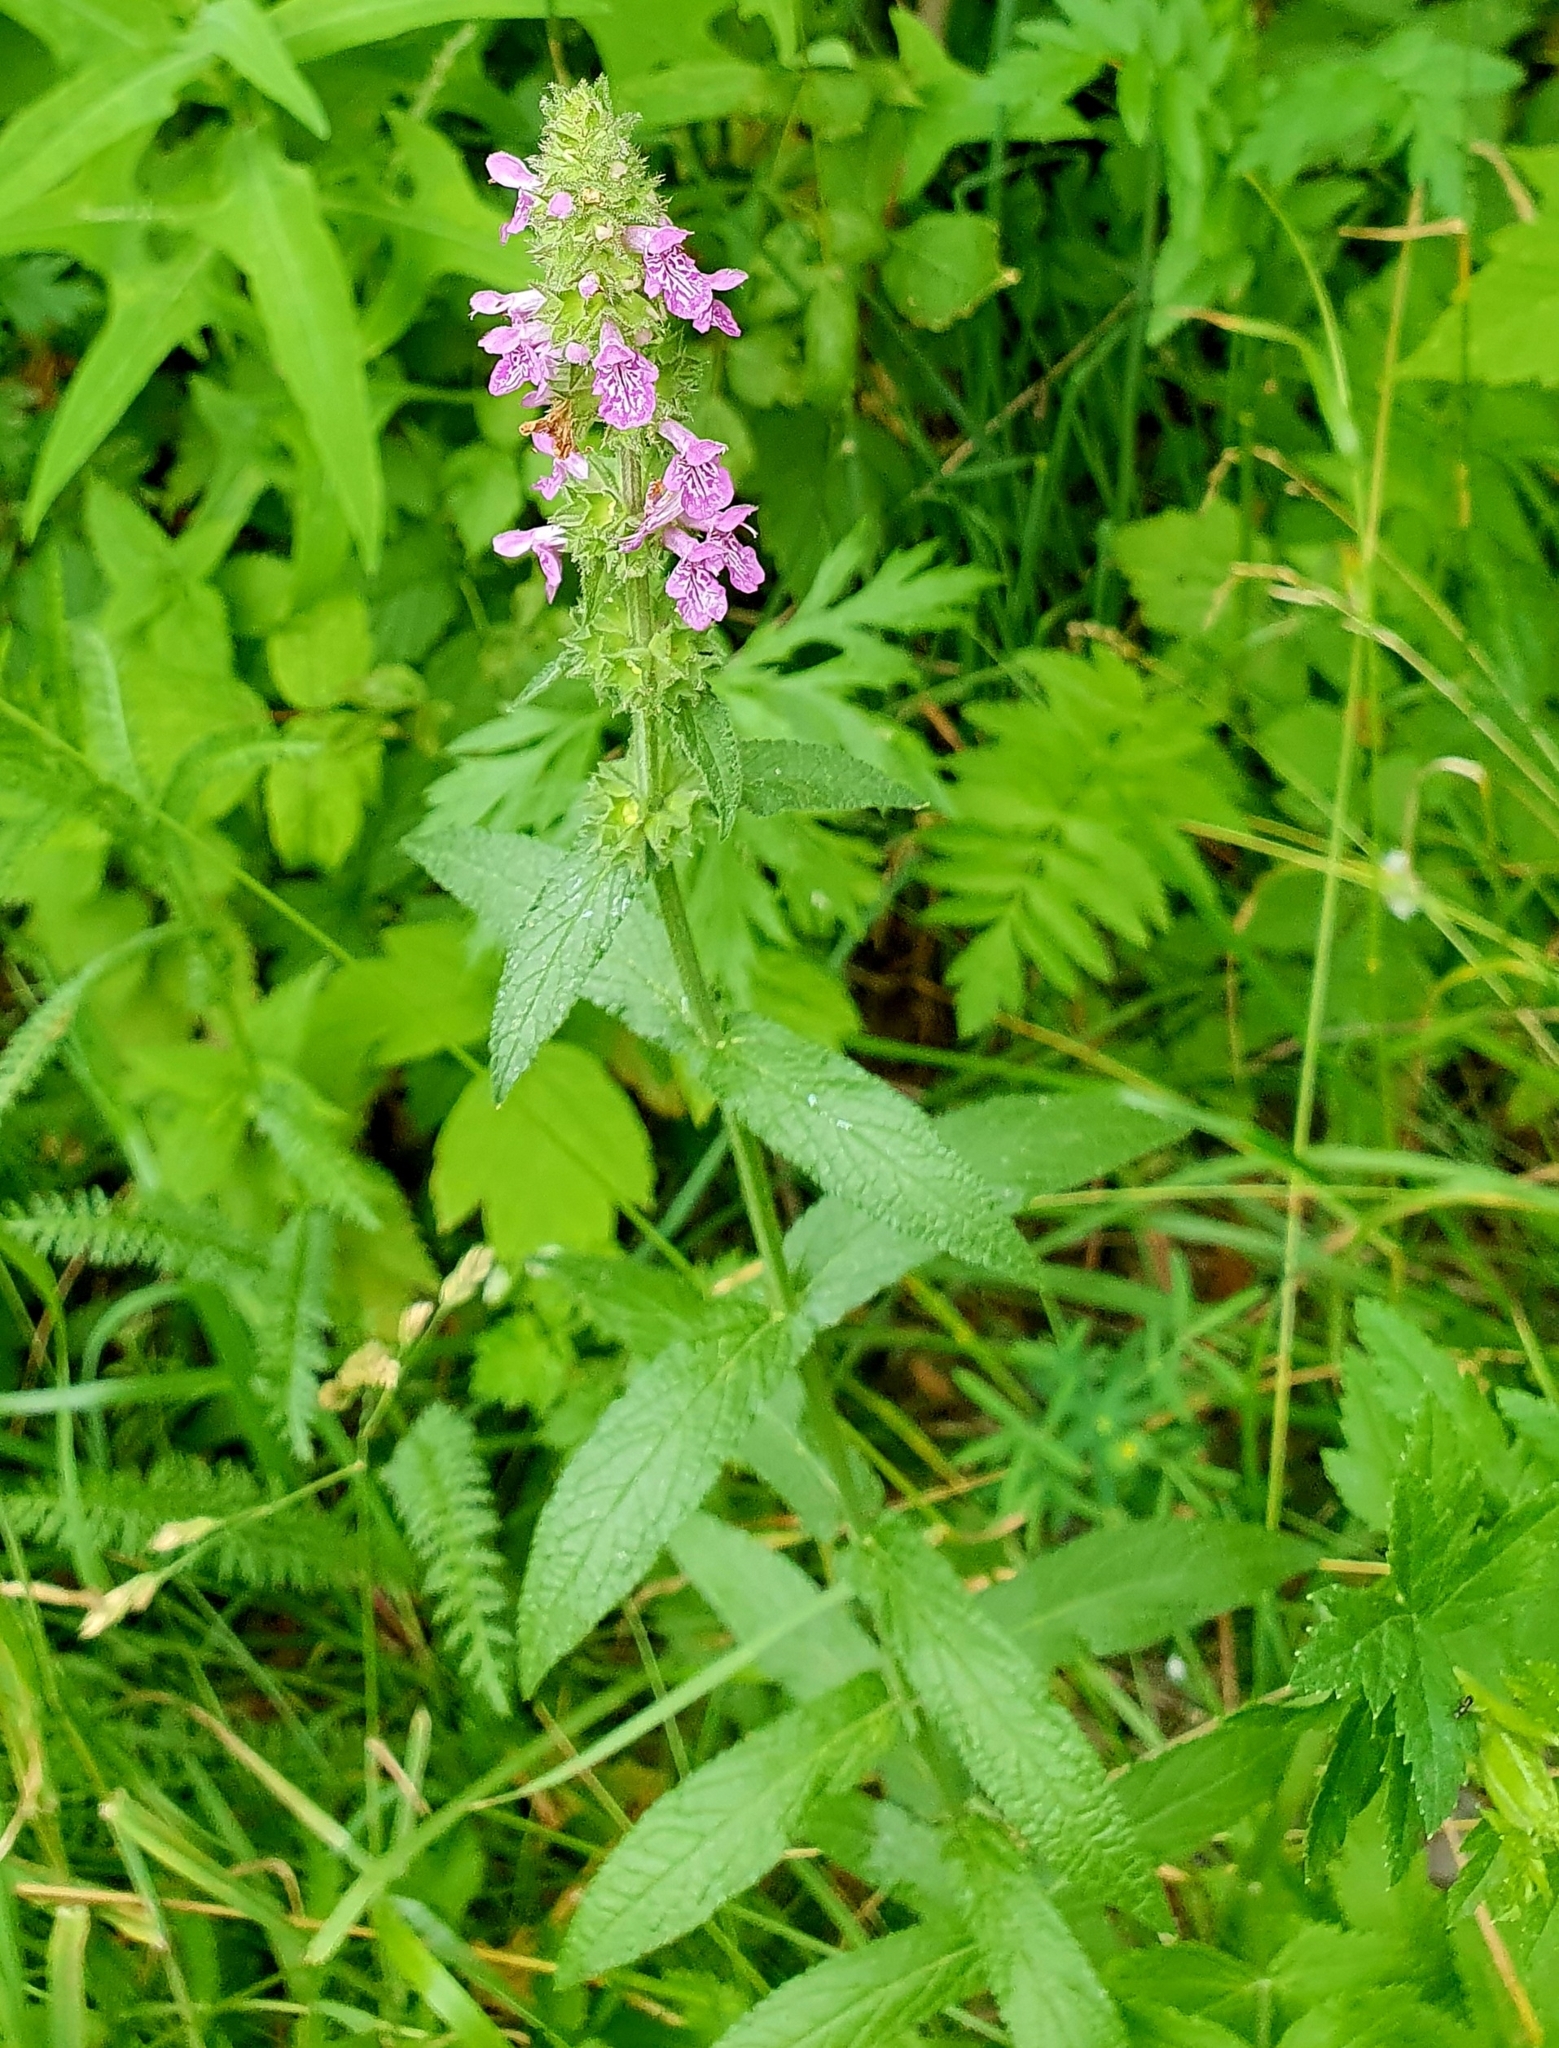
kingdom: Plantae
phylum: Tracheophyta
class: Magnoliopsida
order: Lamiales
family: Lamiaceae
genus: Stachys
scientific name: Stachys palustris
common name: Marsh woundwort
